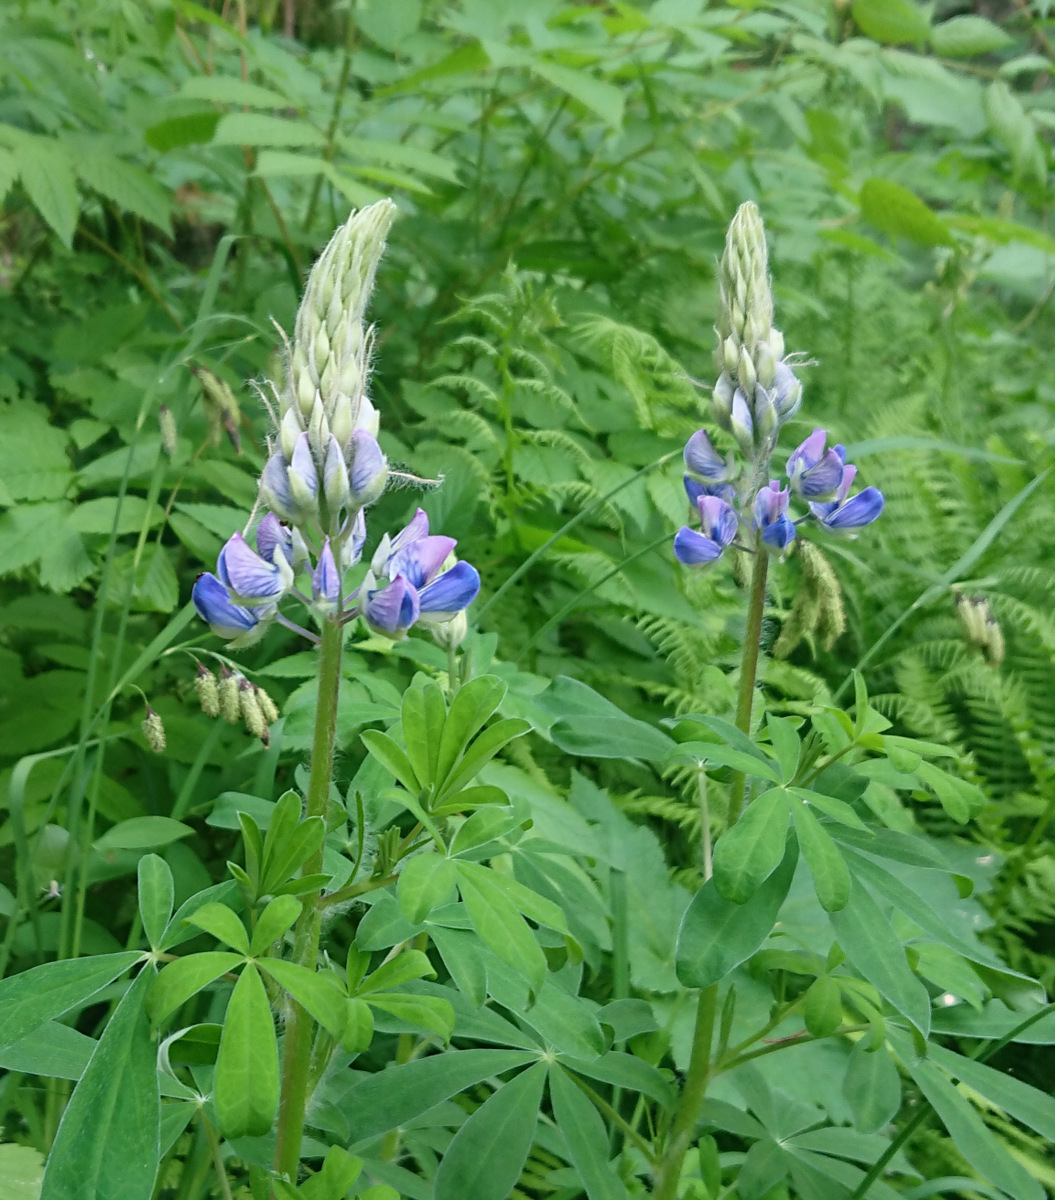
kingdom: Plantae
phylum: Tracheophyta
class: Magnoliopsida
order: Fabales
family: Fabaceae
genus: Lupinus
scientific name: Lupinus nootkatensis
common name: Nootka lupine
